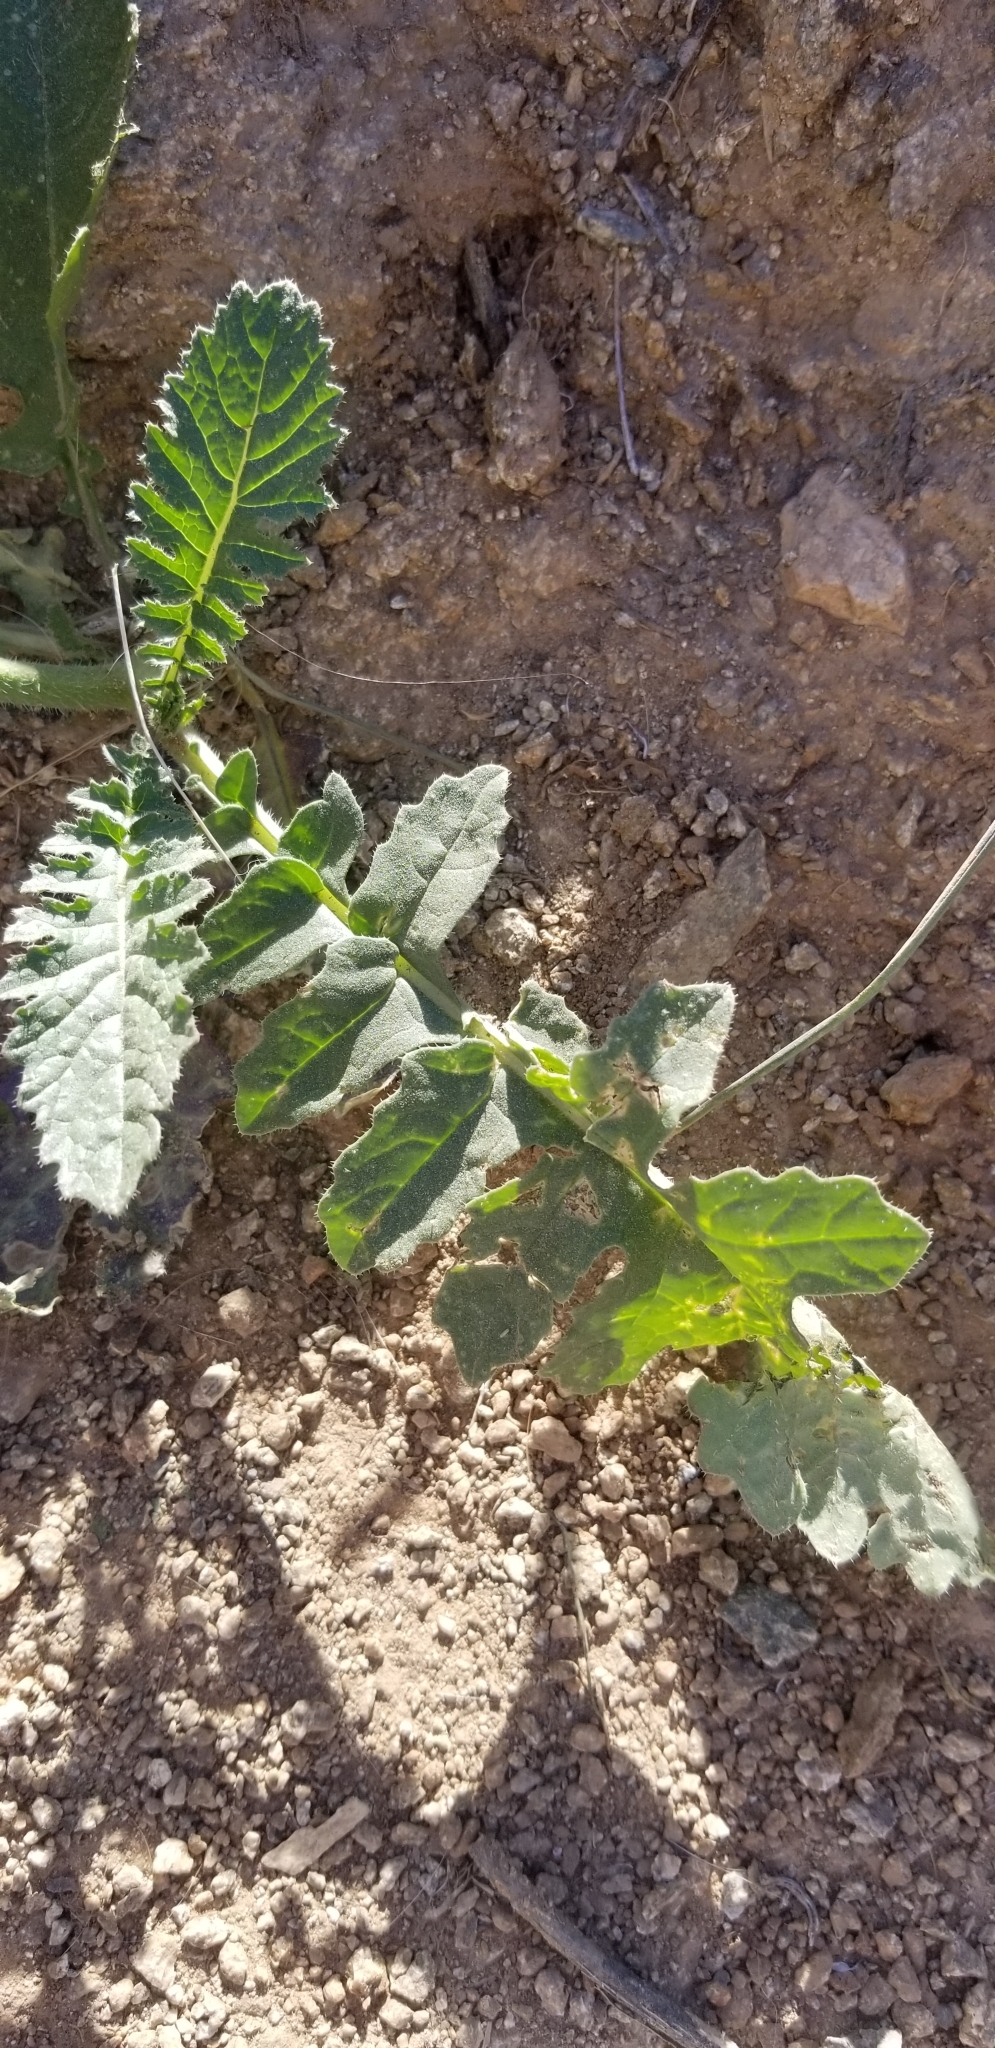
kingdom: Plantae
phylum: Tracheophyta
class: Magnoliopsida
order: Brassicales
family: Brassicaceae
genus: Brassica
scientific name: Brassica tournefortii
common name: Pale cabbage
